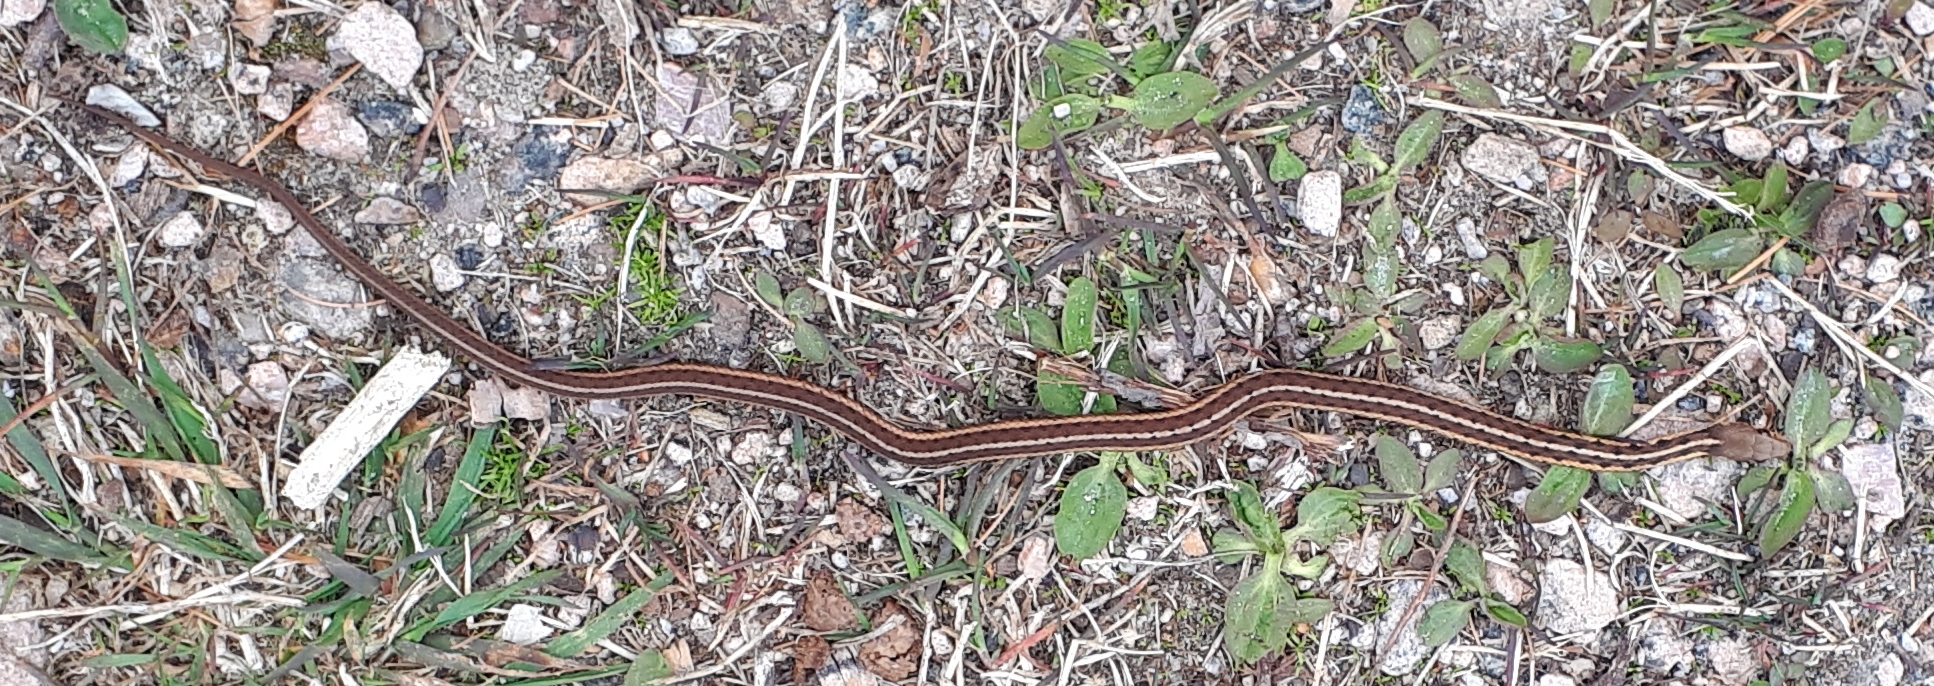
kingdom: Animalia
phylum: Chordata
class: Squamata
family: Colubridae
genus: Thamnophis
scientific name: Thamnophis sirtalis
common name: Common garter snake
